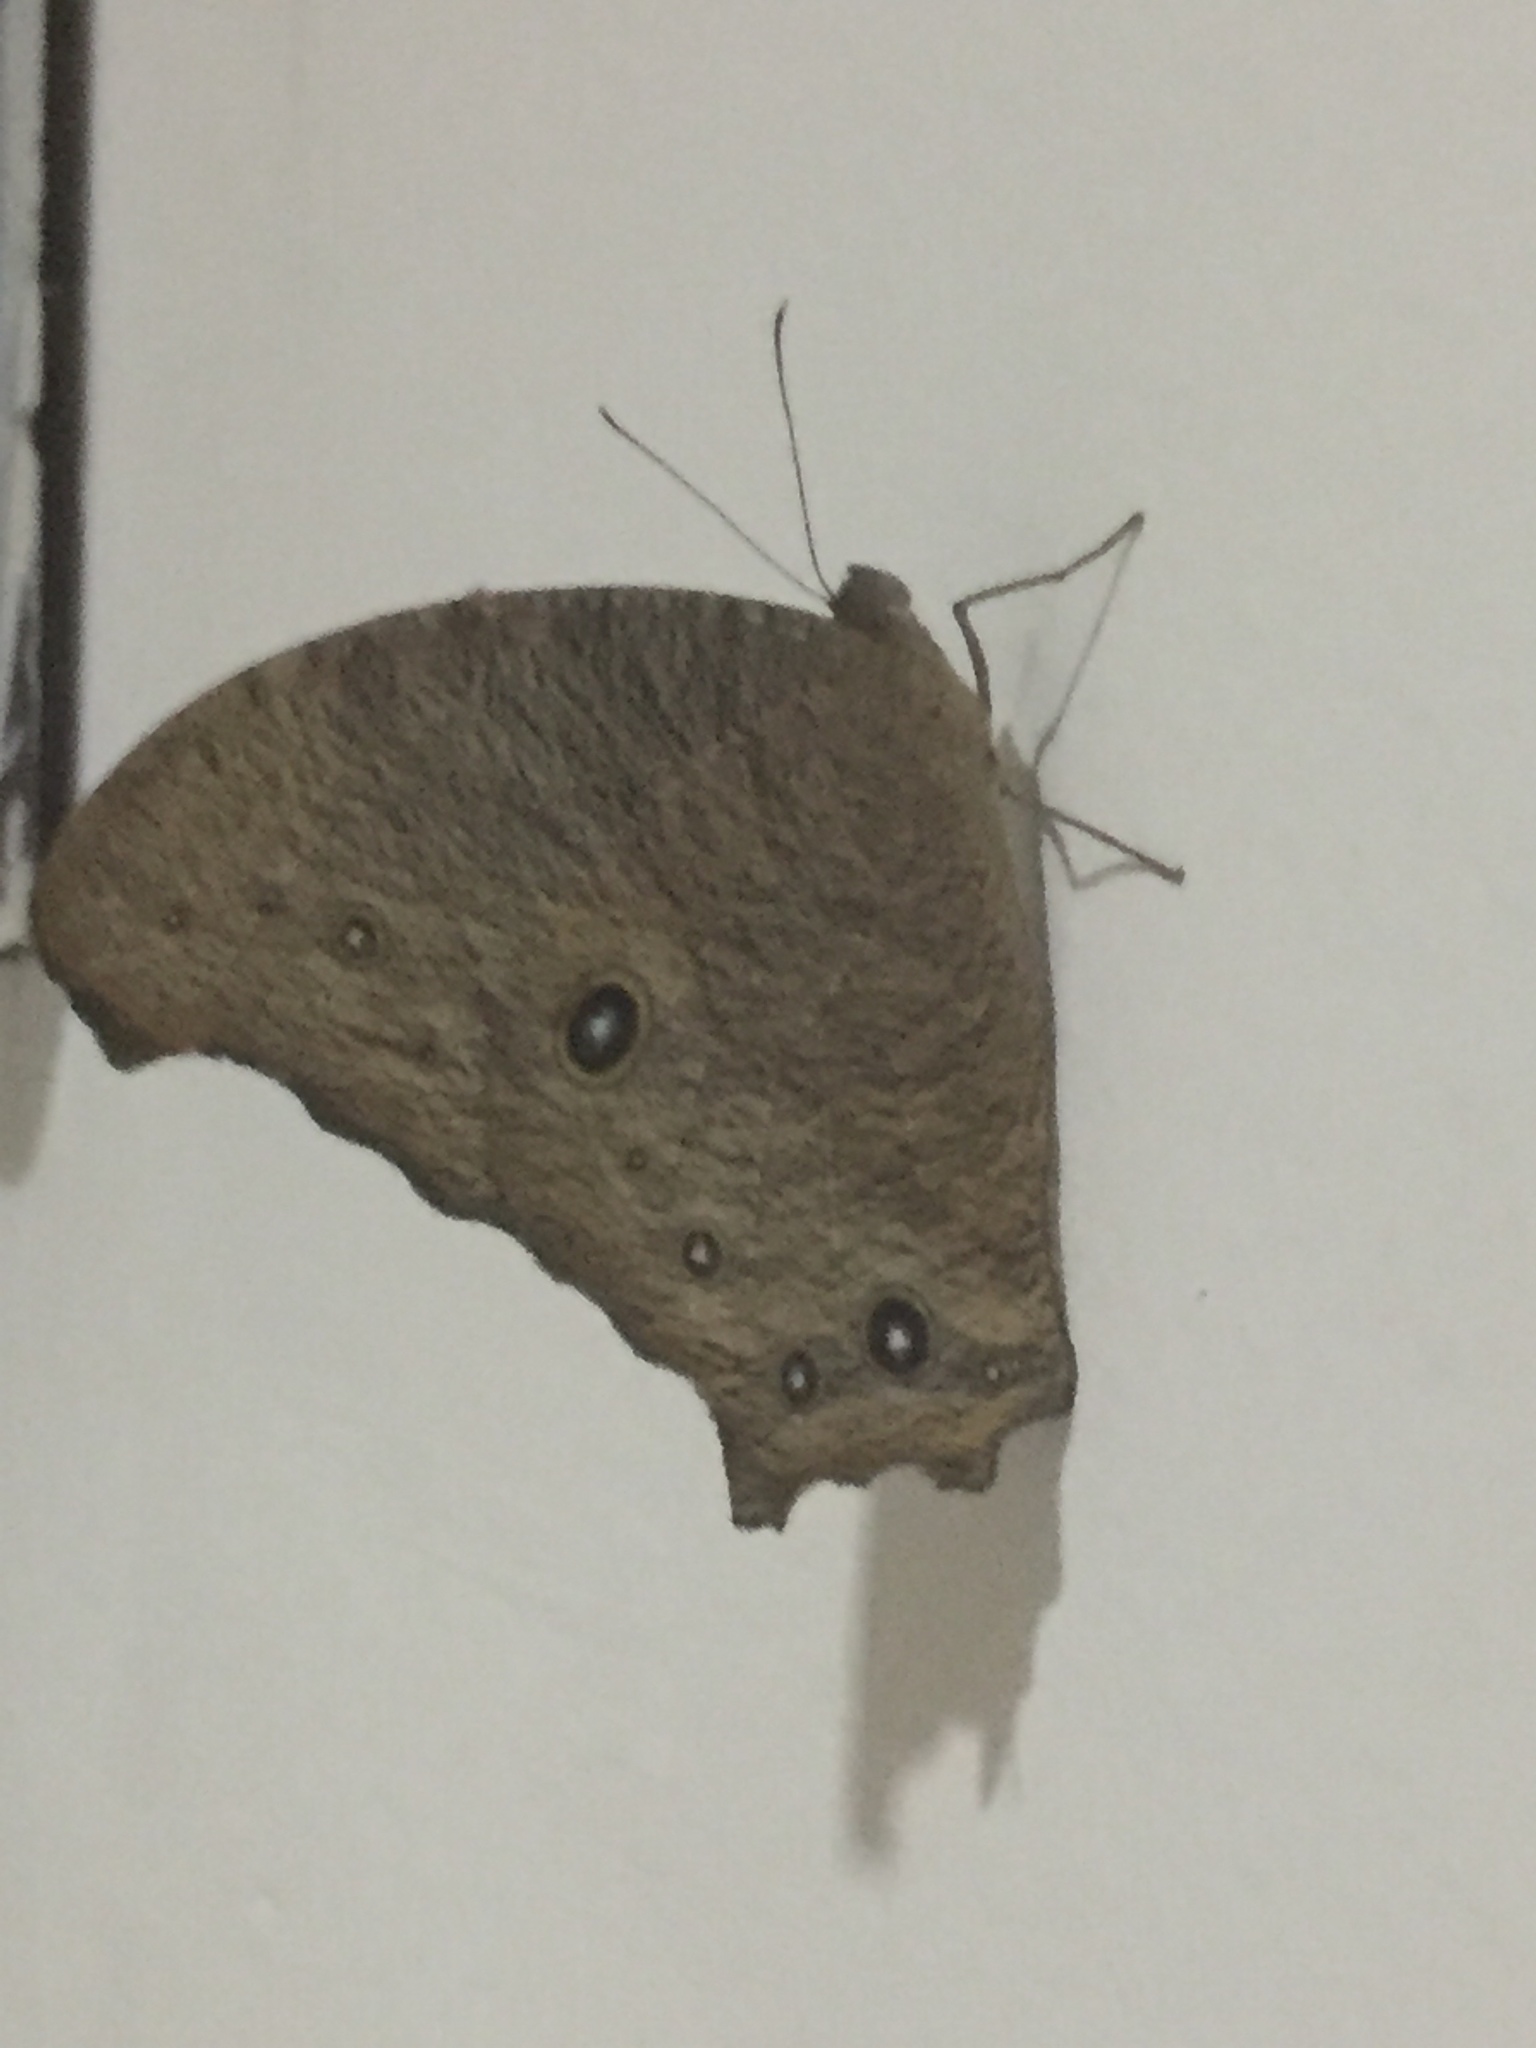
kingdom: Animalia
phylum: Arthropoda
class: Insecta
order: Lepidoptera
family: Nymphalidae
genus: Melanitis
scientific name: Melanitis leda
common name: Twilight brown
